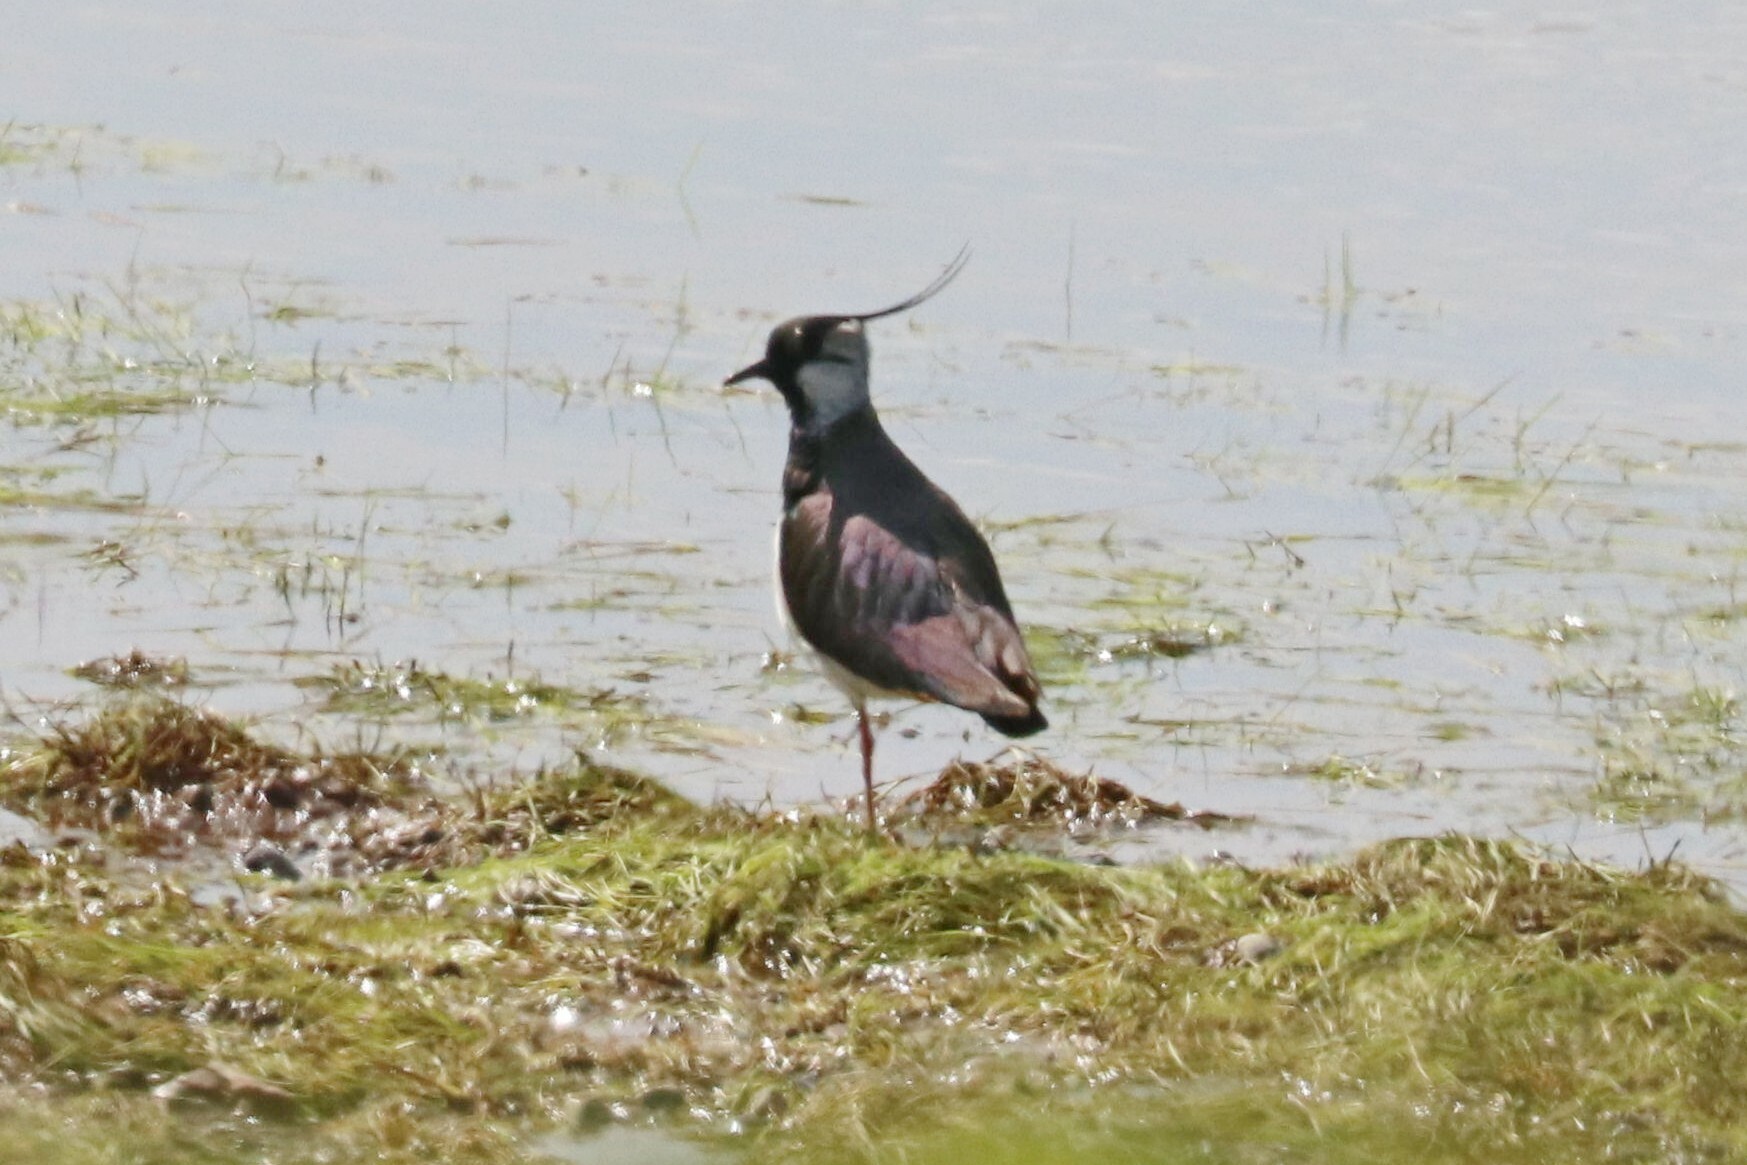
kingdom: Animalia
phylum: Chordata
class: Aves
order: Charadriiformes
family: Charadriidae
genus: Vanellus
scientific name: Vanellus vanellus
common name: Northern lapwing
